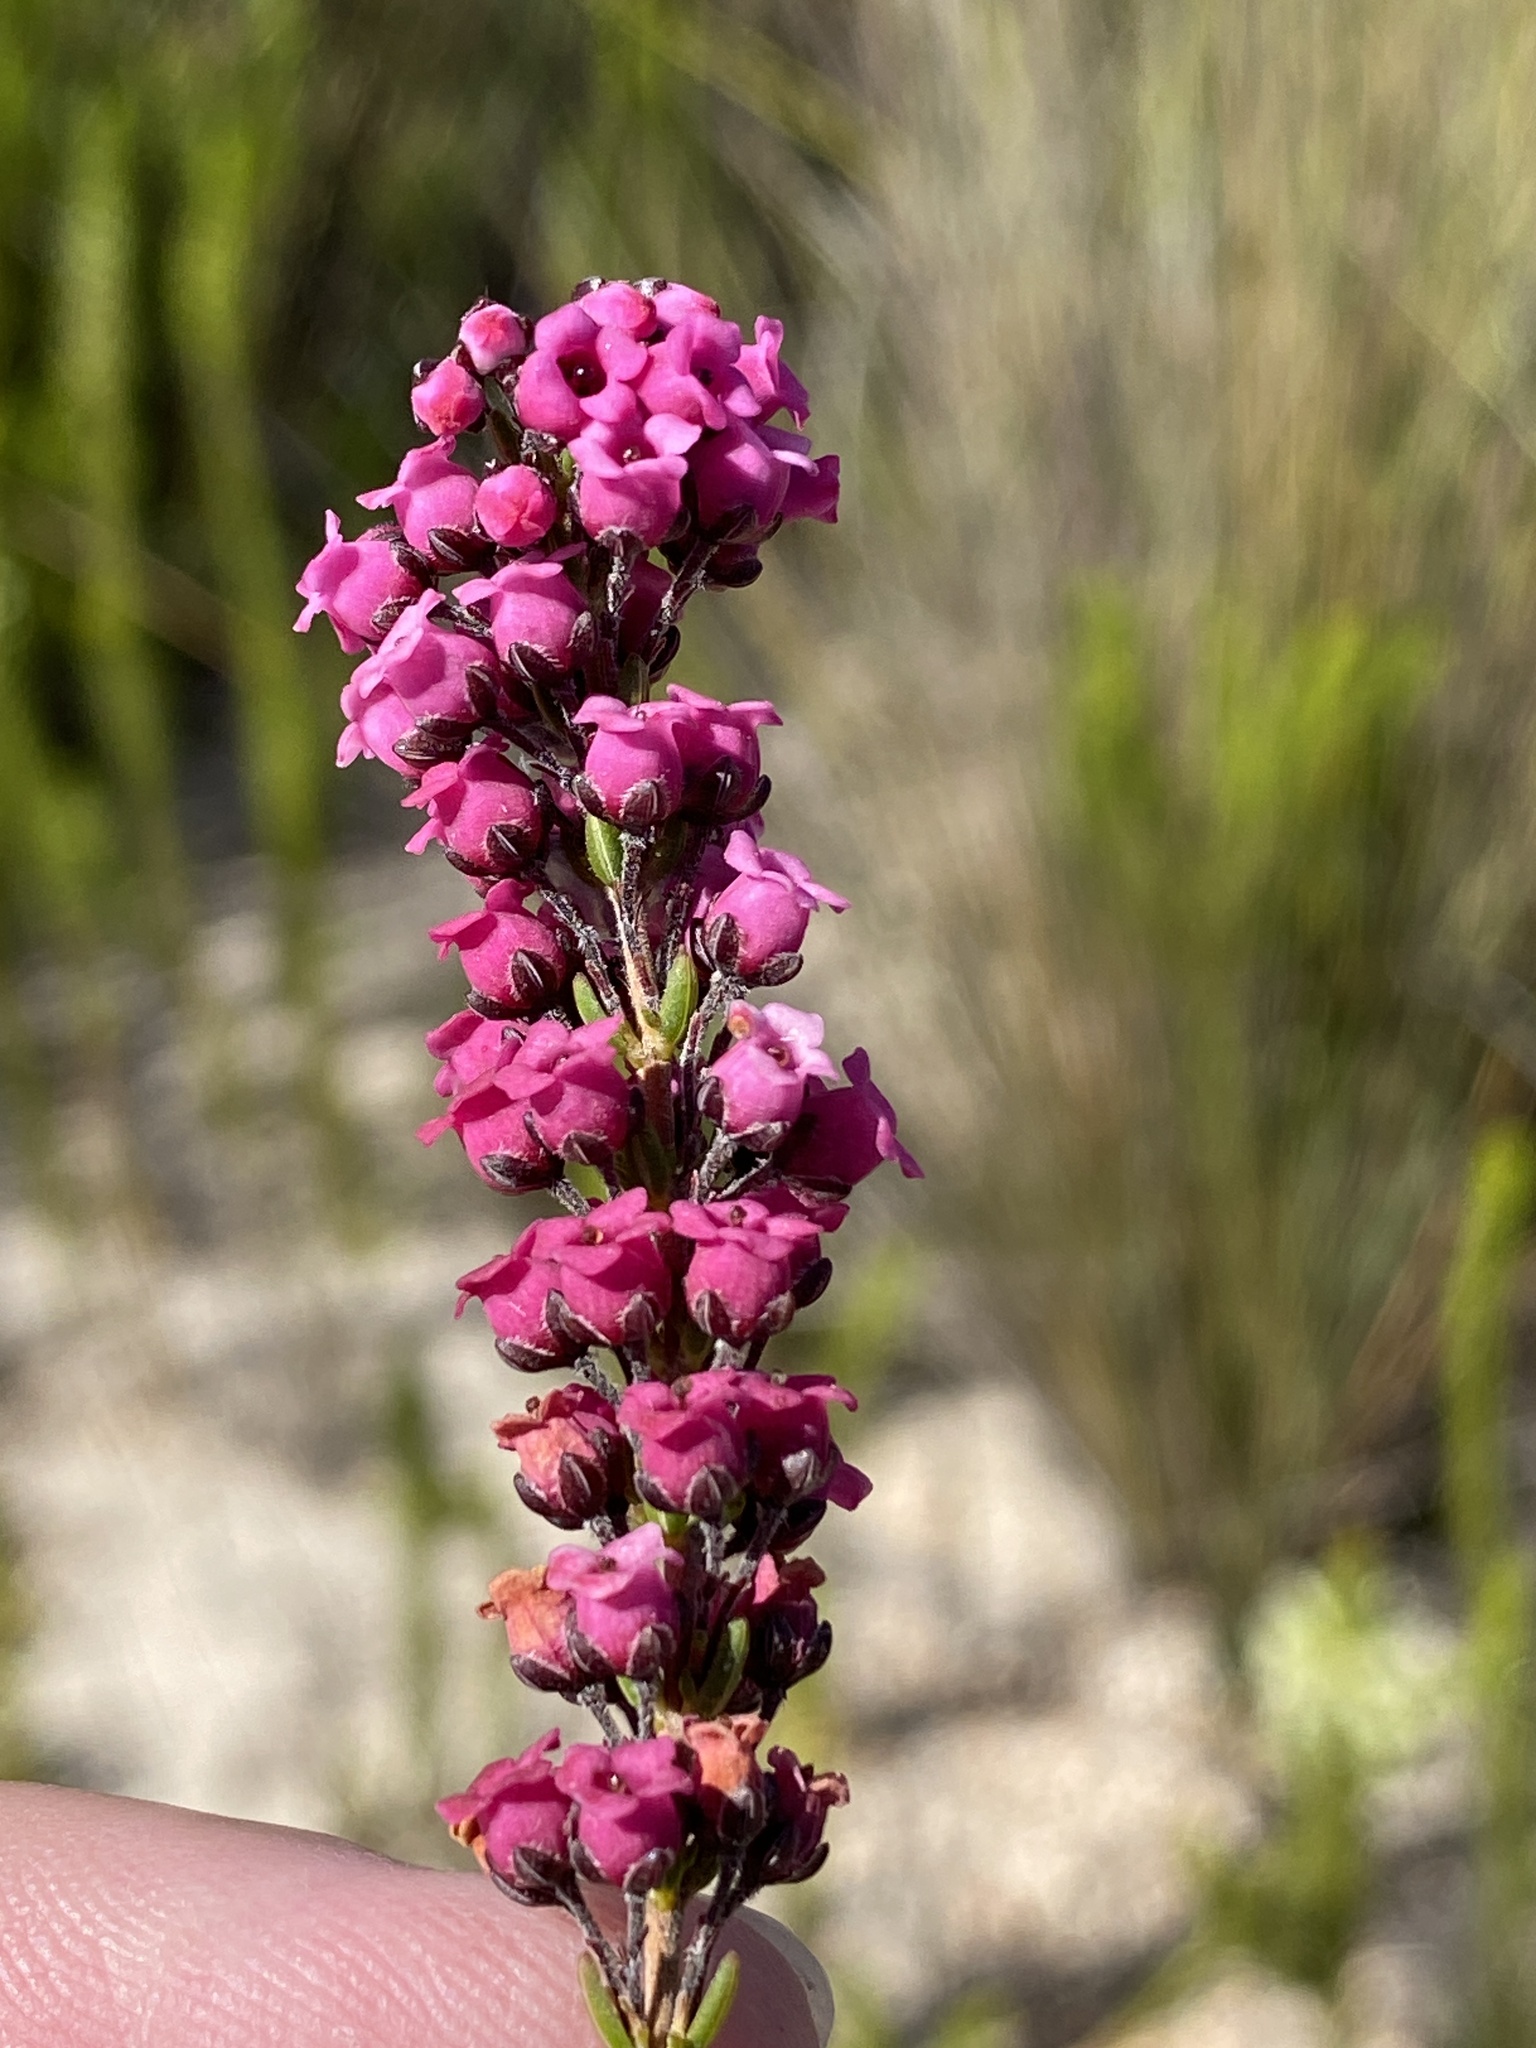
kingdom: Plantae
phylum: Tracheophyta
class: Magnoliopsida
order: Ericales
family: Ericaceae
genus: Erica
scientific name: Erica pulchella
